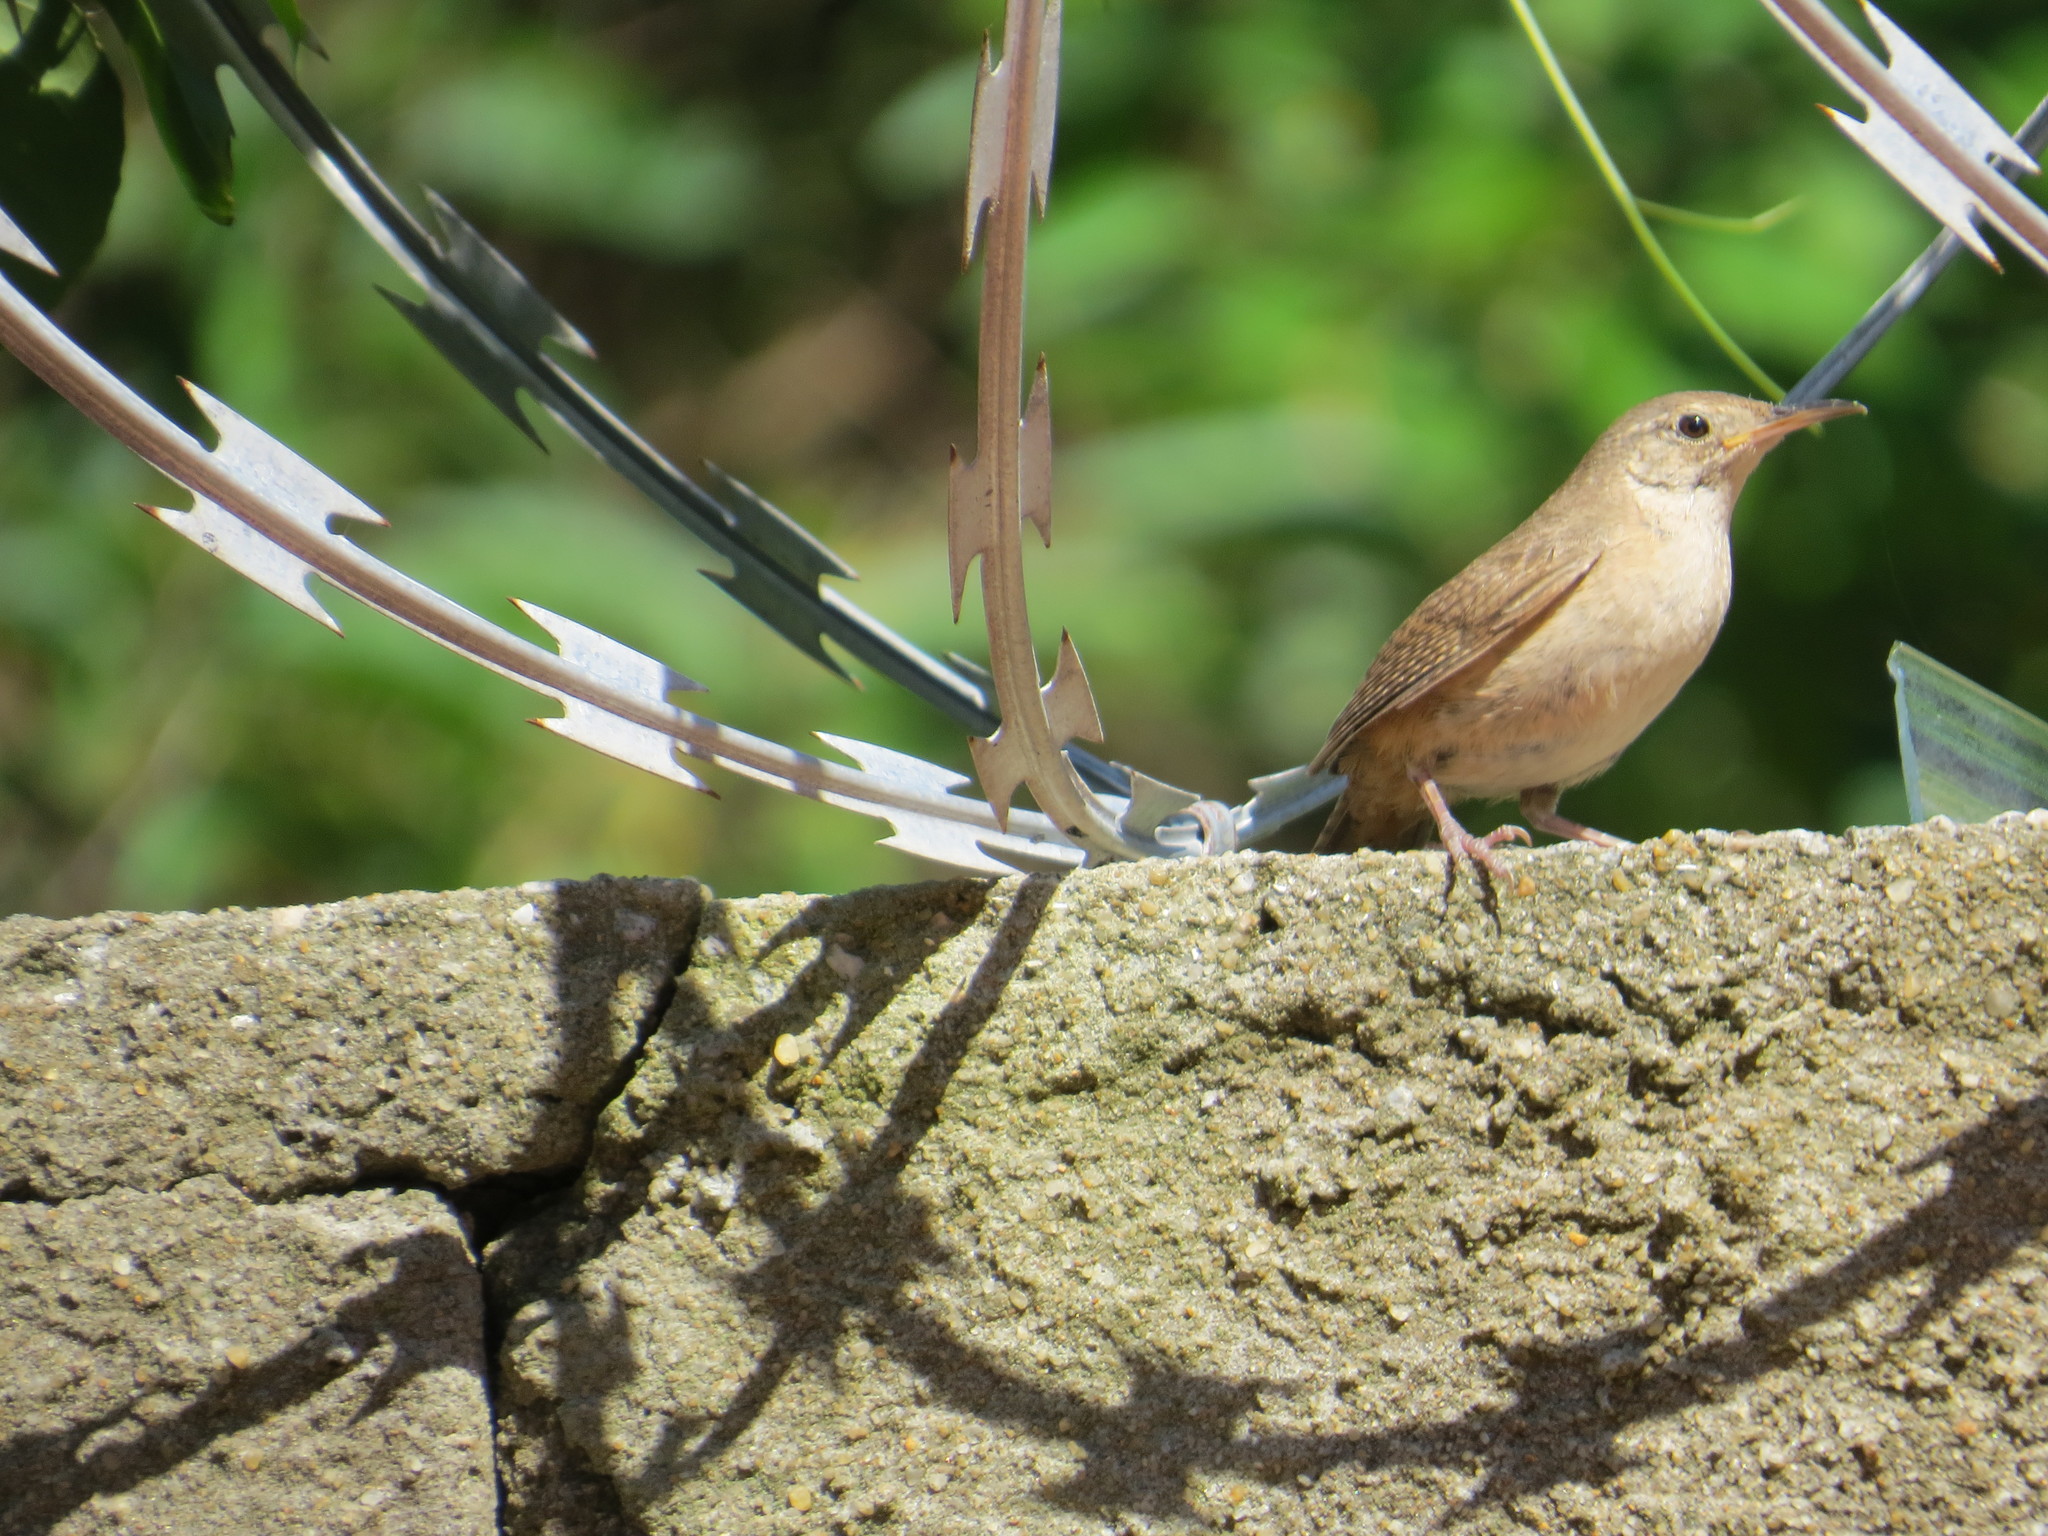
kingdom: Animalia
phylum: Chordata
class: Aves
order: Passeriformes
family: Troglodytidae
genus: Troglodytes
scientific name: Troglodytes aedon
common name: House wren
